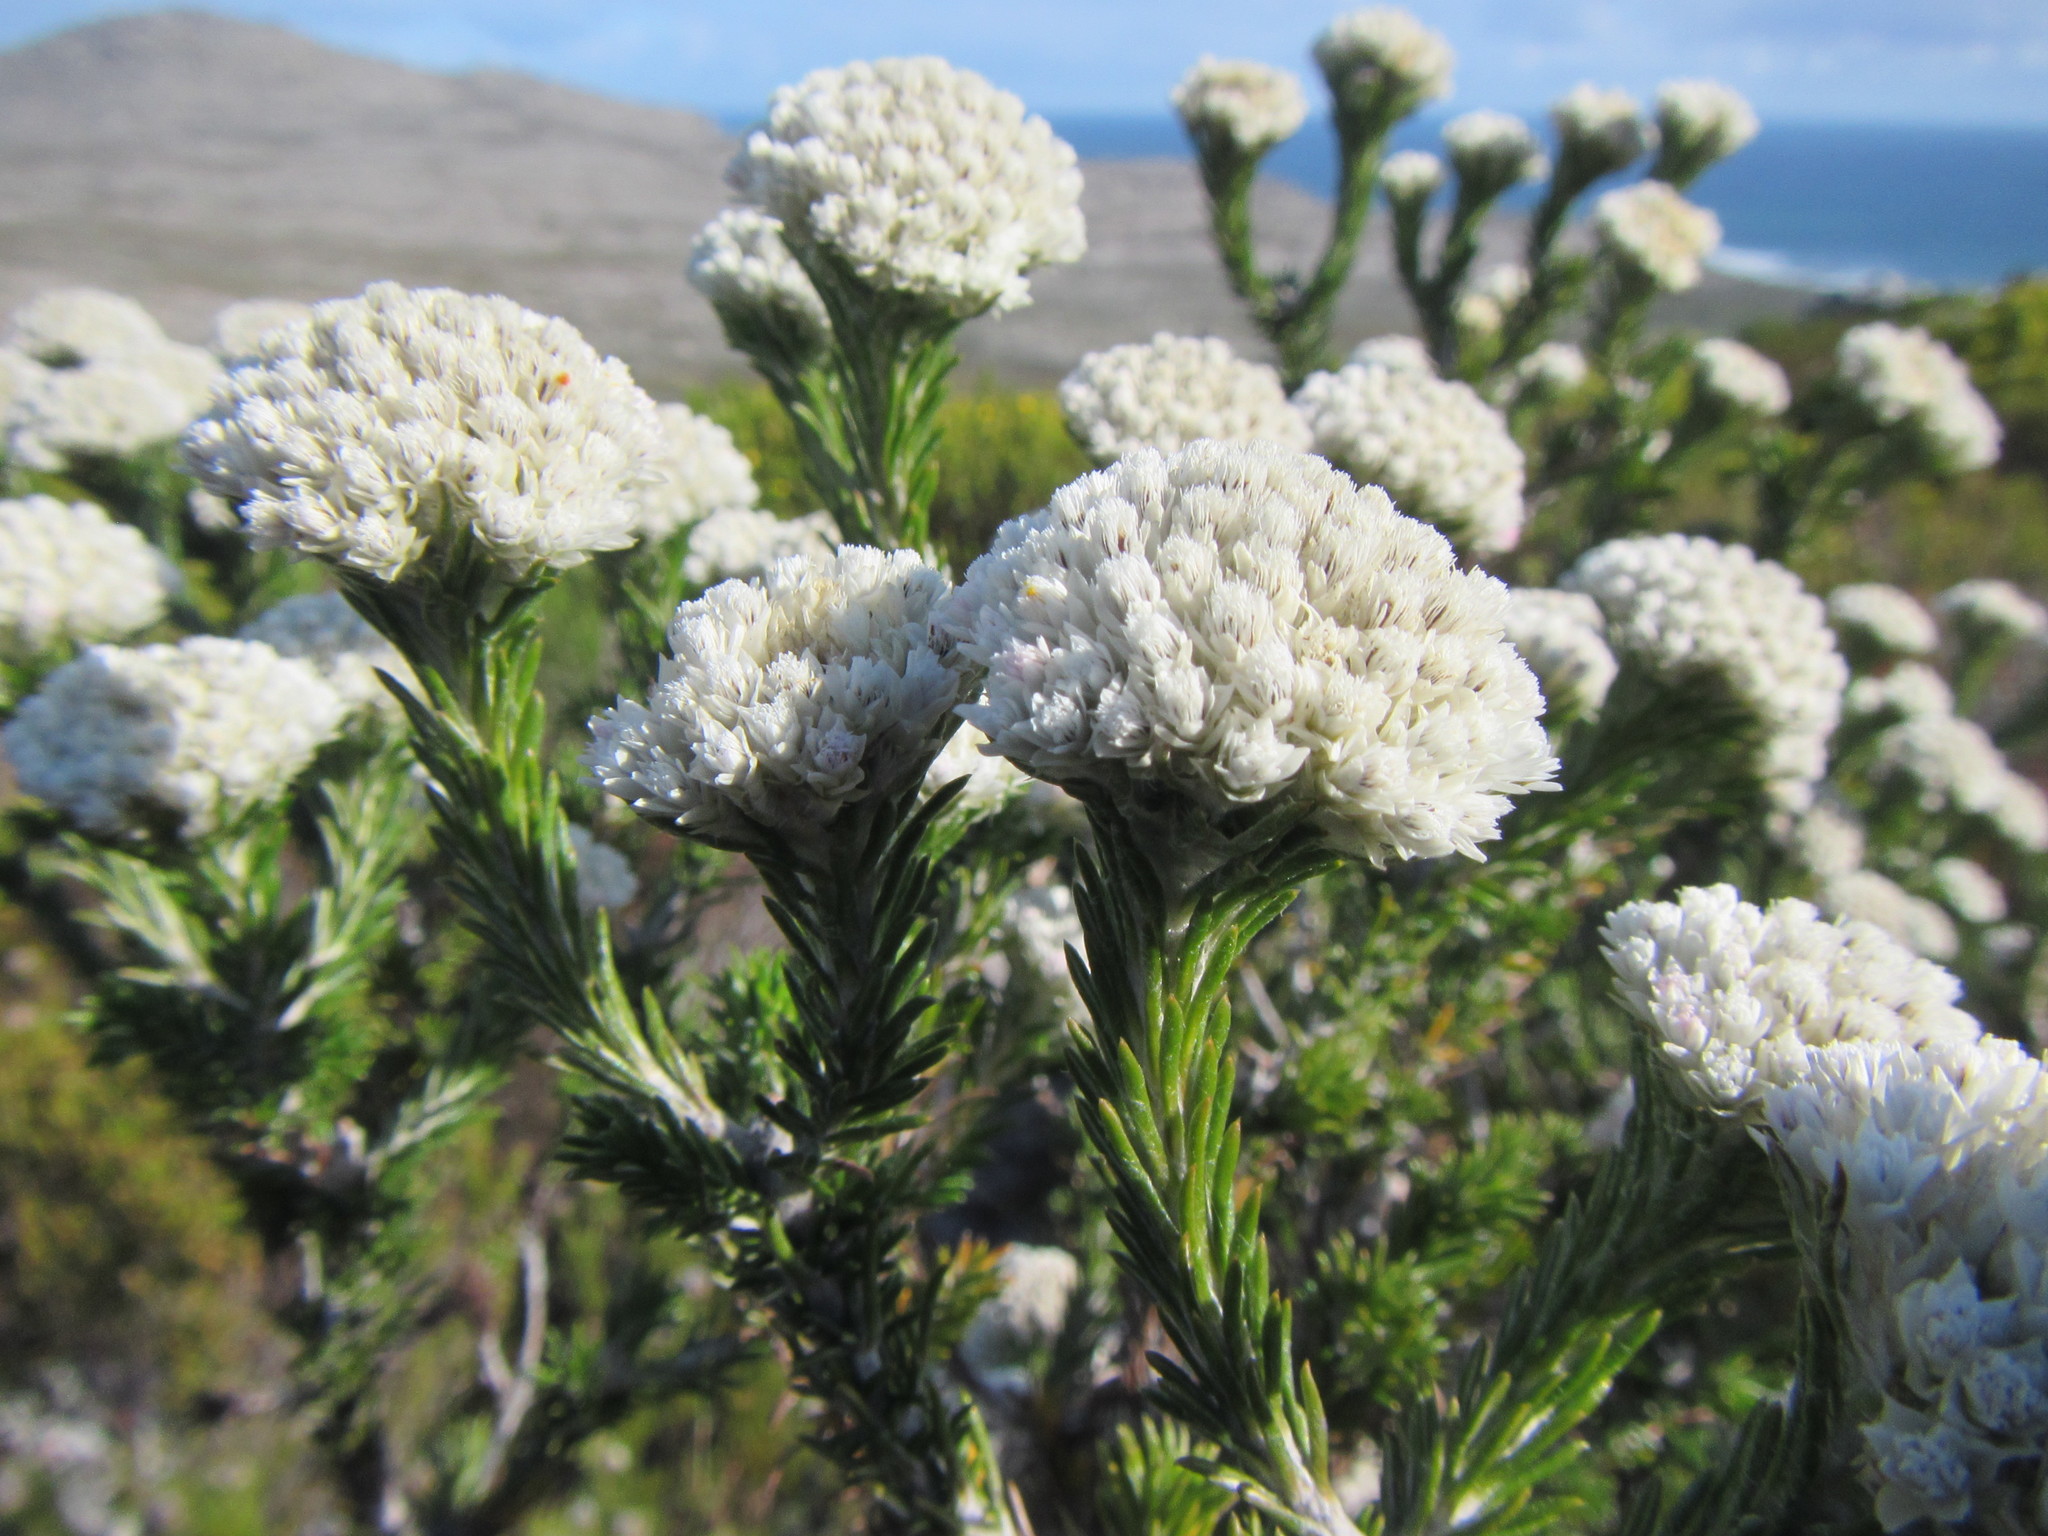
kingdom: Plantae
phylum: Tracheophyta
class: Magnoliopsida
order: Asterales
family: Asteraceae
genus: Metalasia
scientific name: Metalasia compacta
